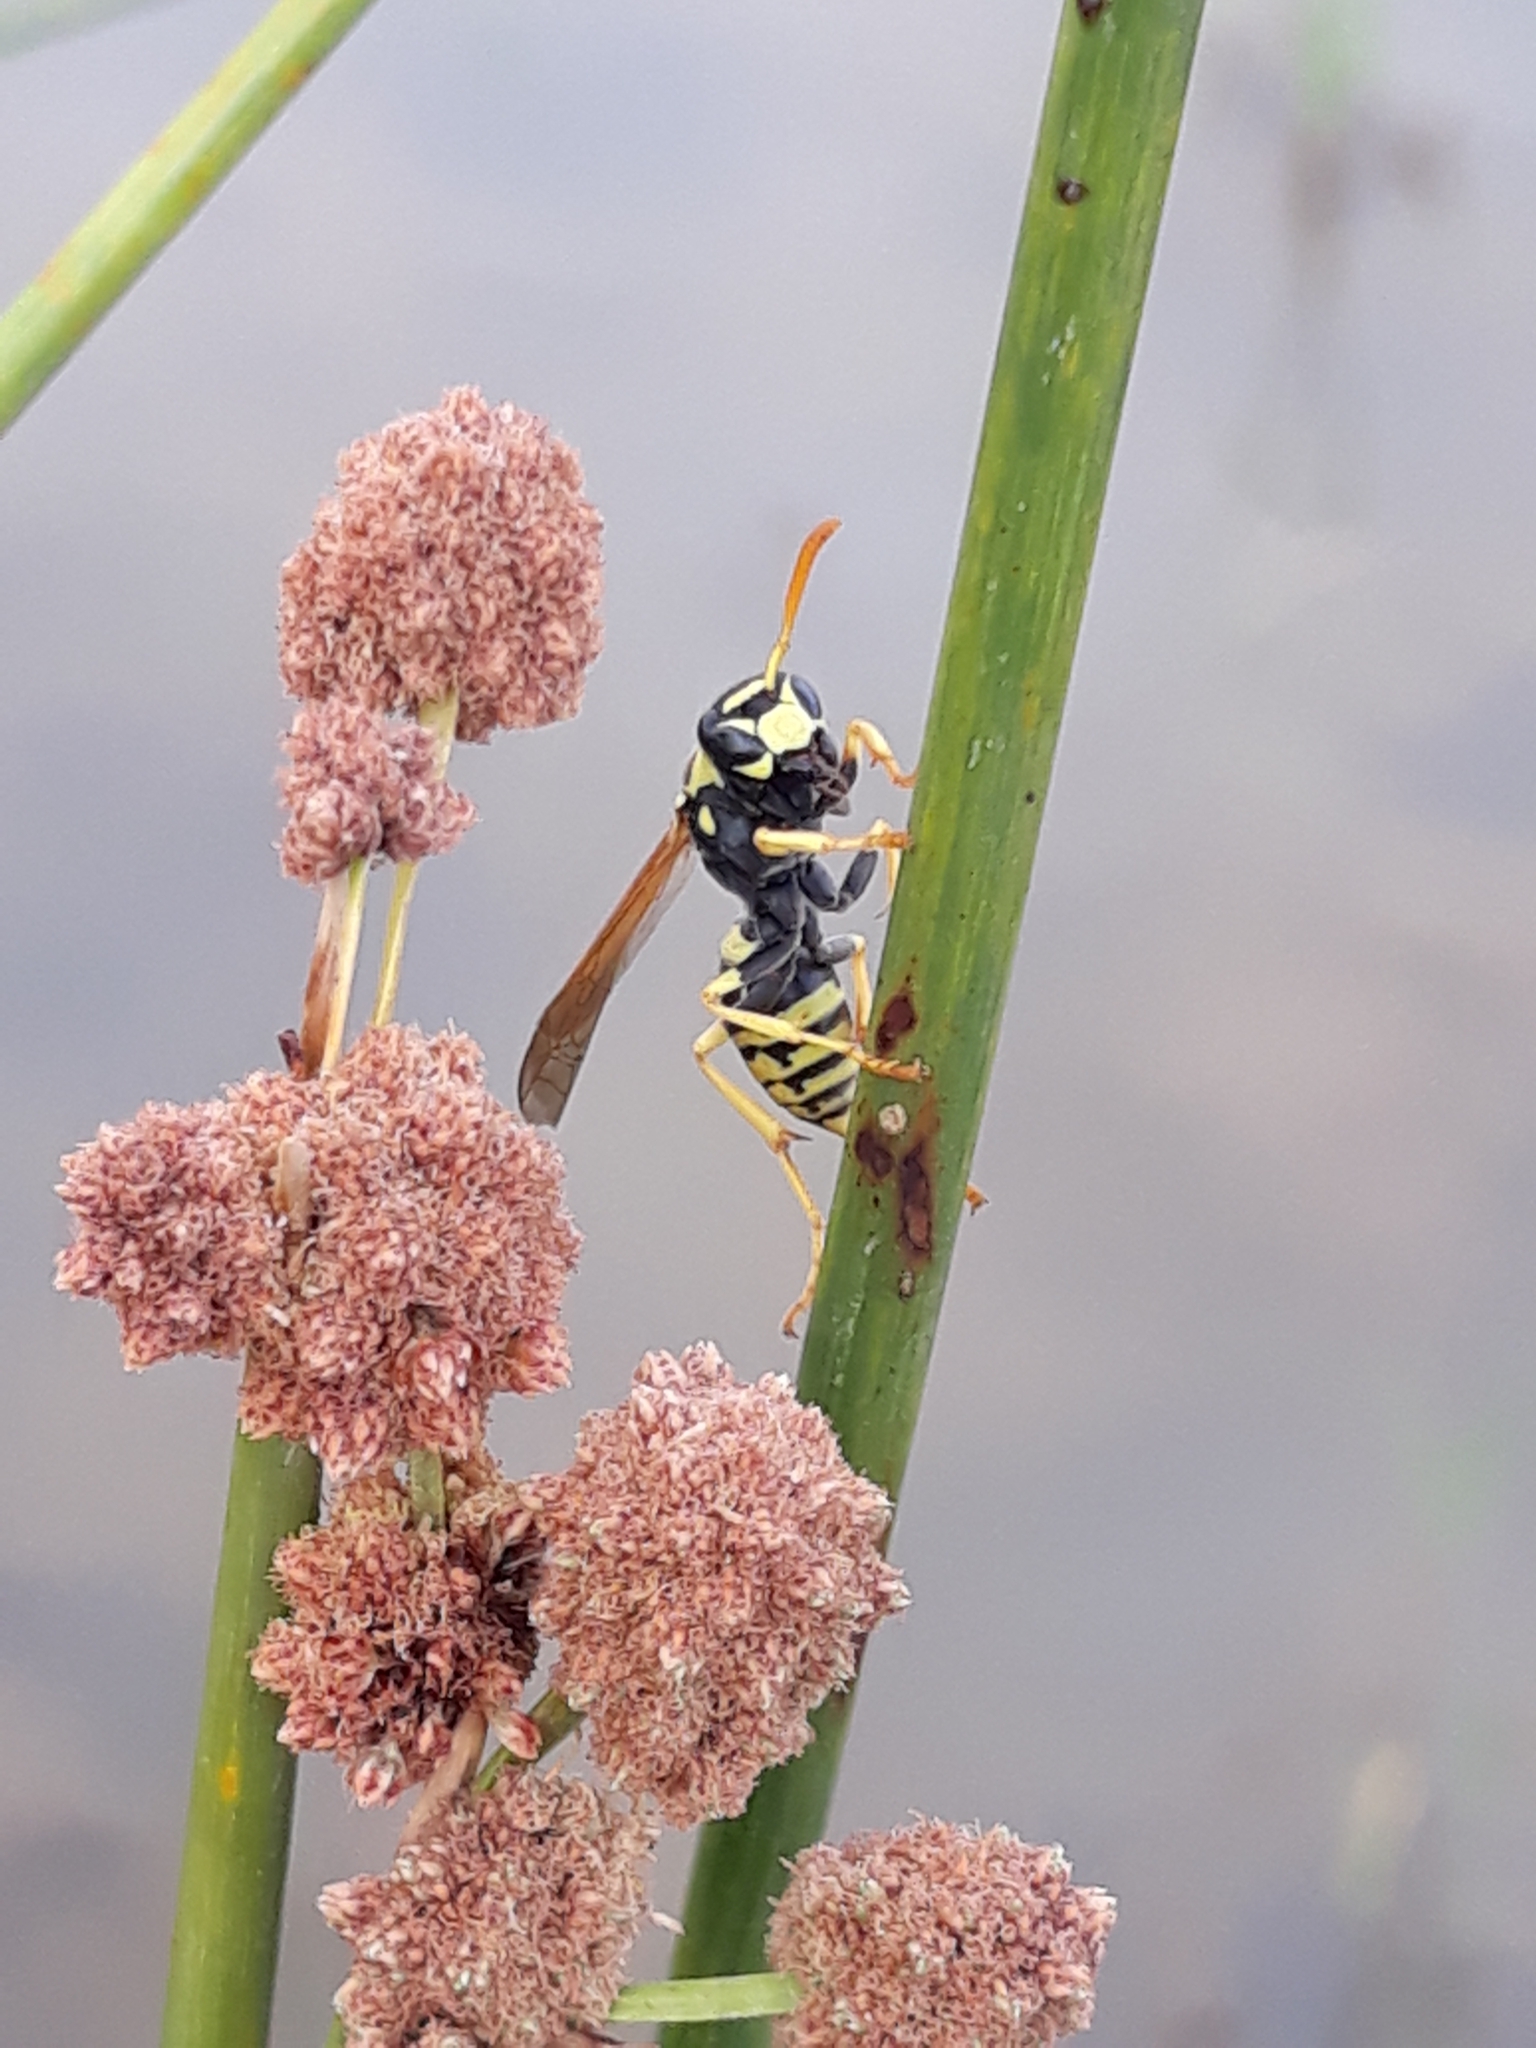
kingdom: Animalia
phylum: Arthropoda
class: Insecta
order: Hymenoptera
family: Eumenidae
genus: Polistes
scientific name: Polistes dominula
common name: Paper wasp
